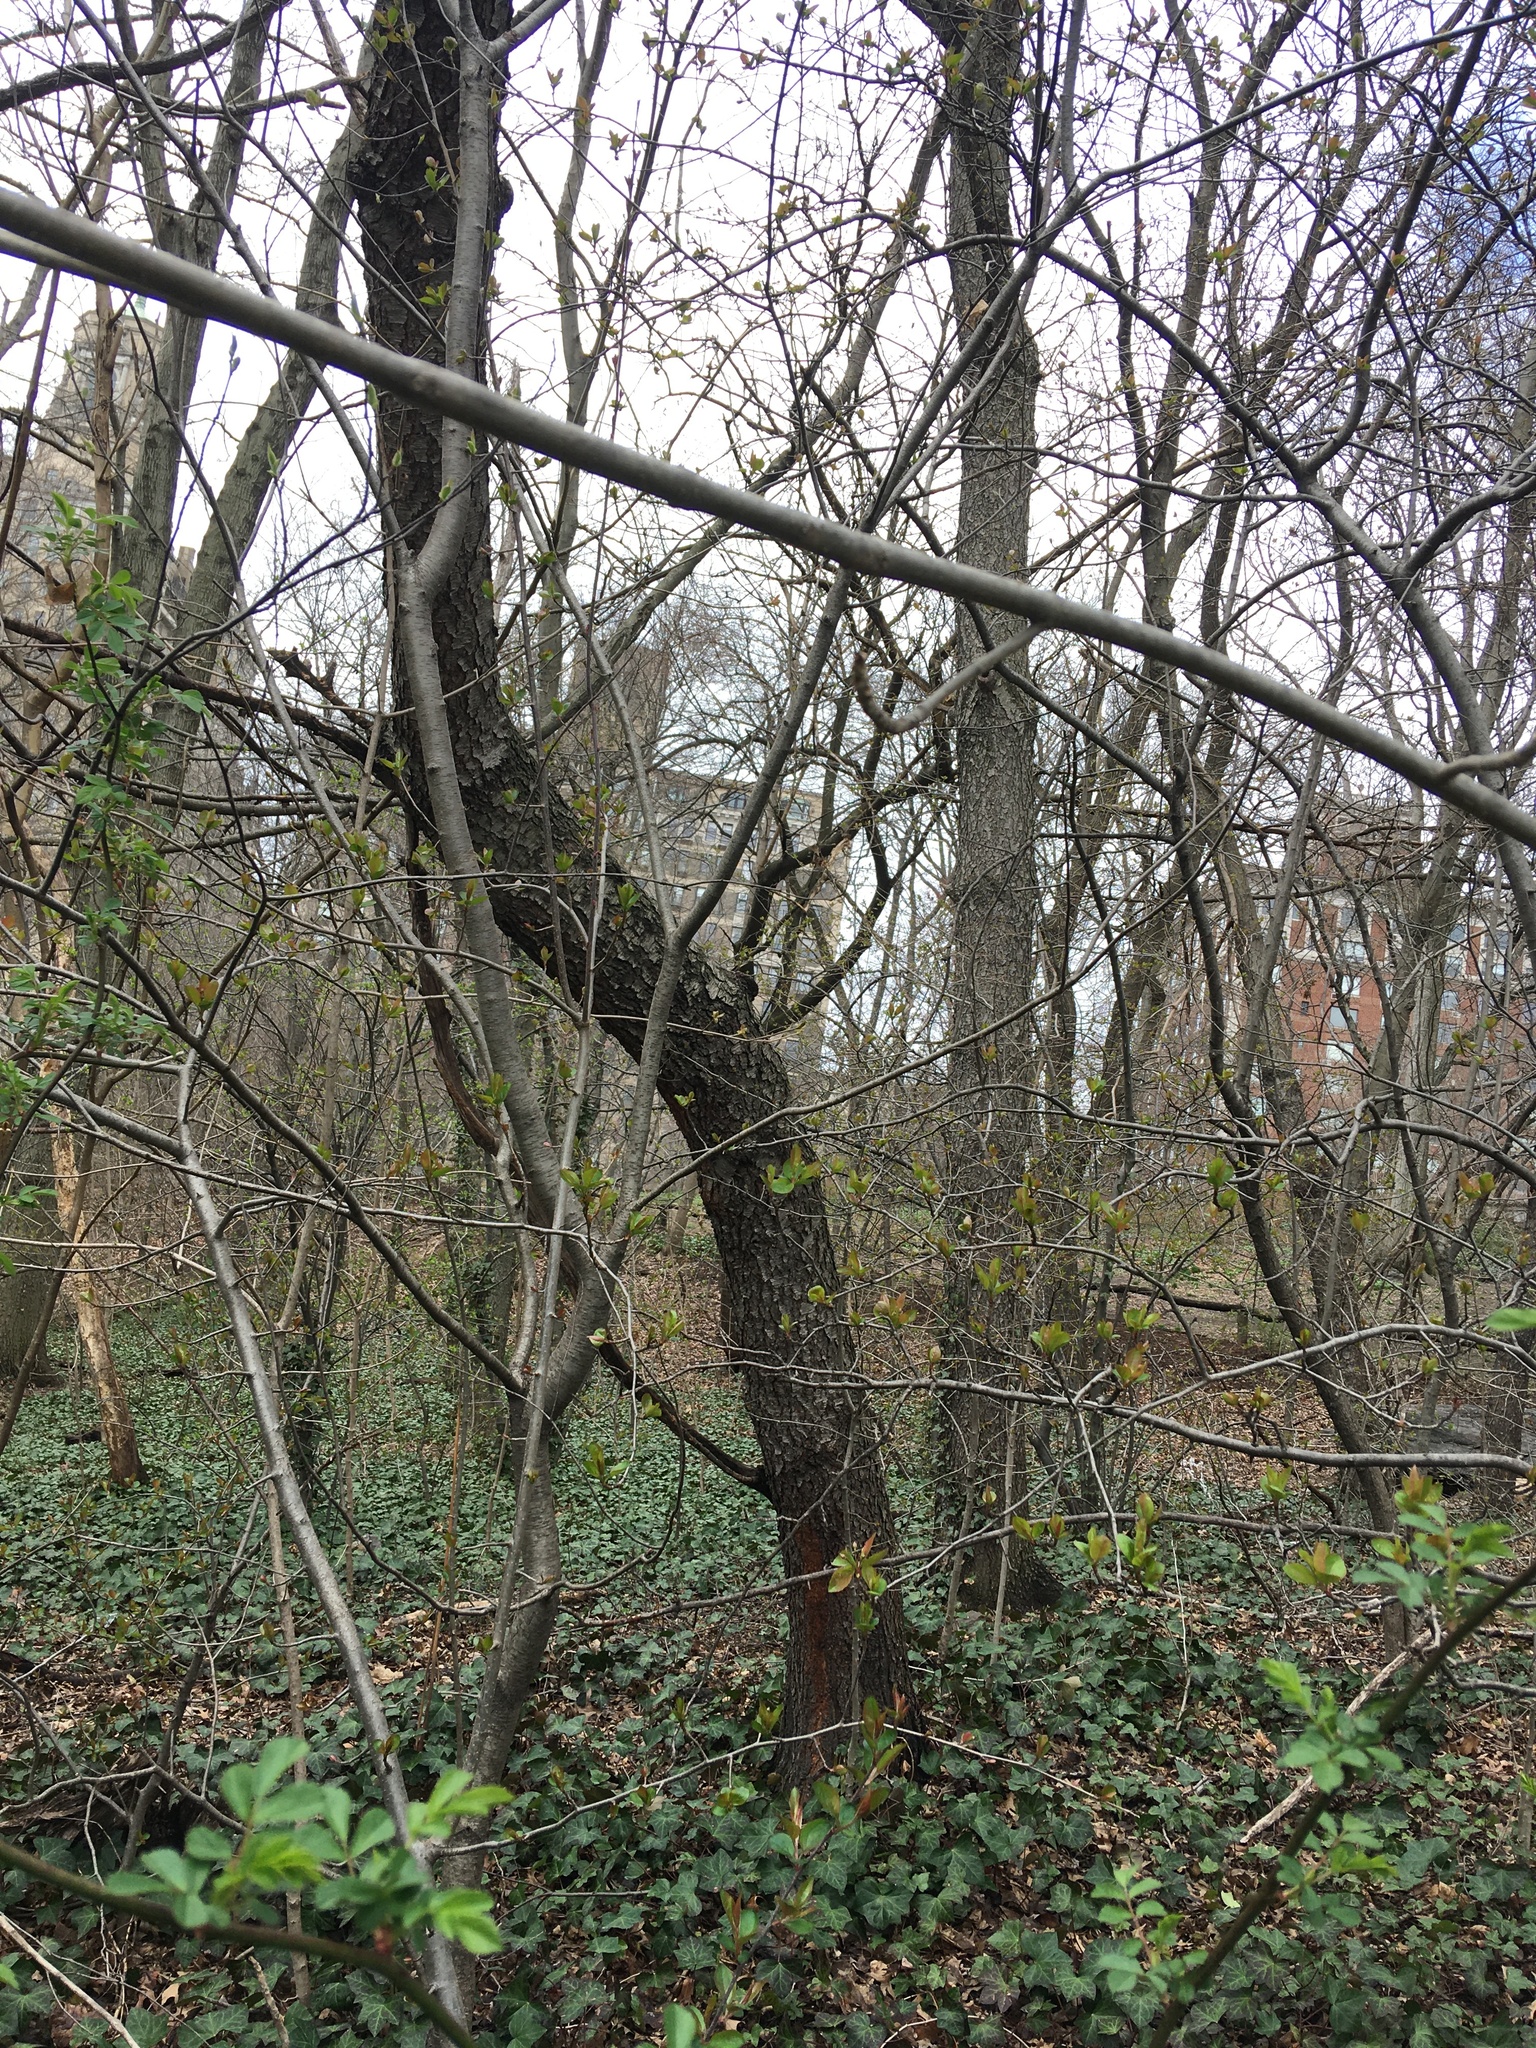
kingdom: Plantae
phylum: Tracheophyta
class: Magnoliopsida
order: Rosales
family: Rosaceae
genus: Prunus
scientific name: Prunus serotina
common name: Black cherry
